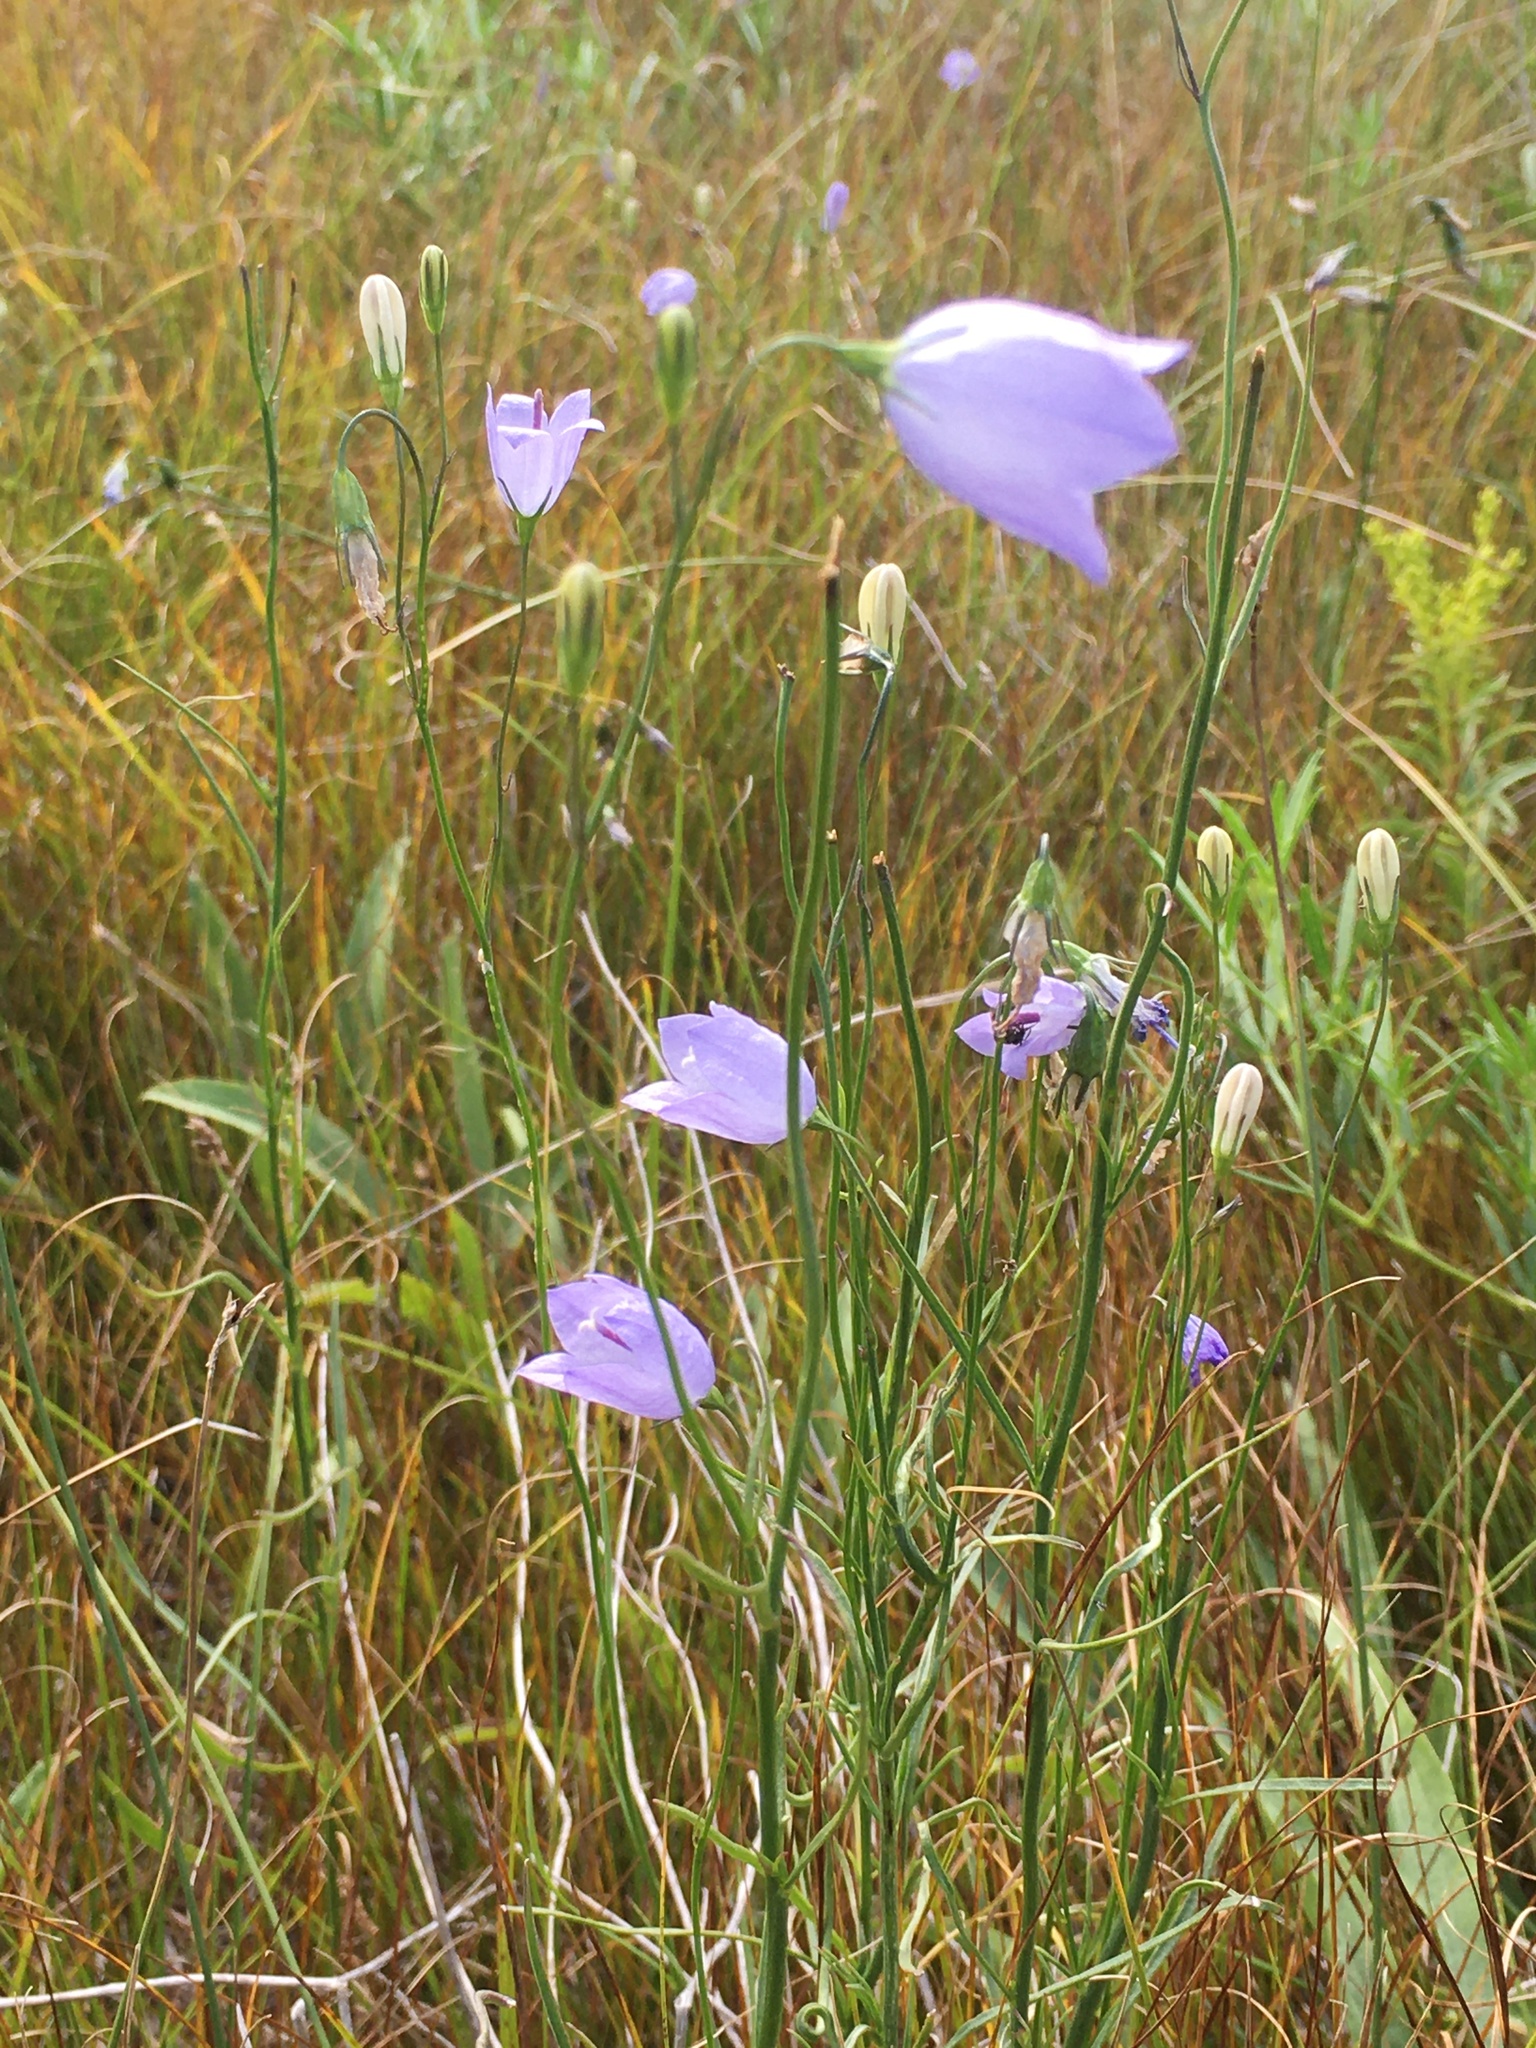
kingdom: Plantae
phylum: Tracheophyta
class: Magnoliopsida
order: Asterales
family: Campanulaceae
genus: Campanula
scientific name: Campanula alaskana
